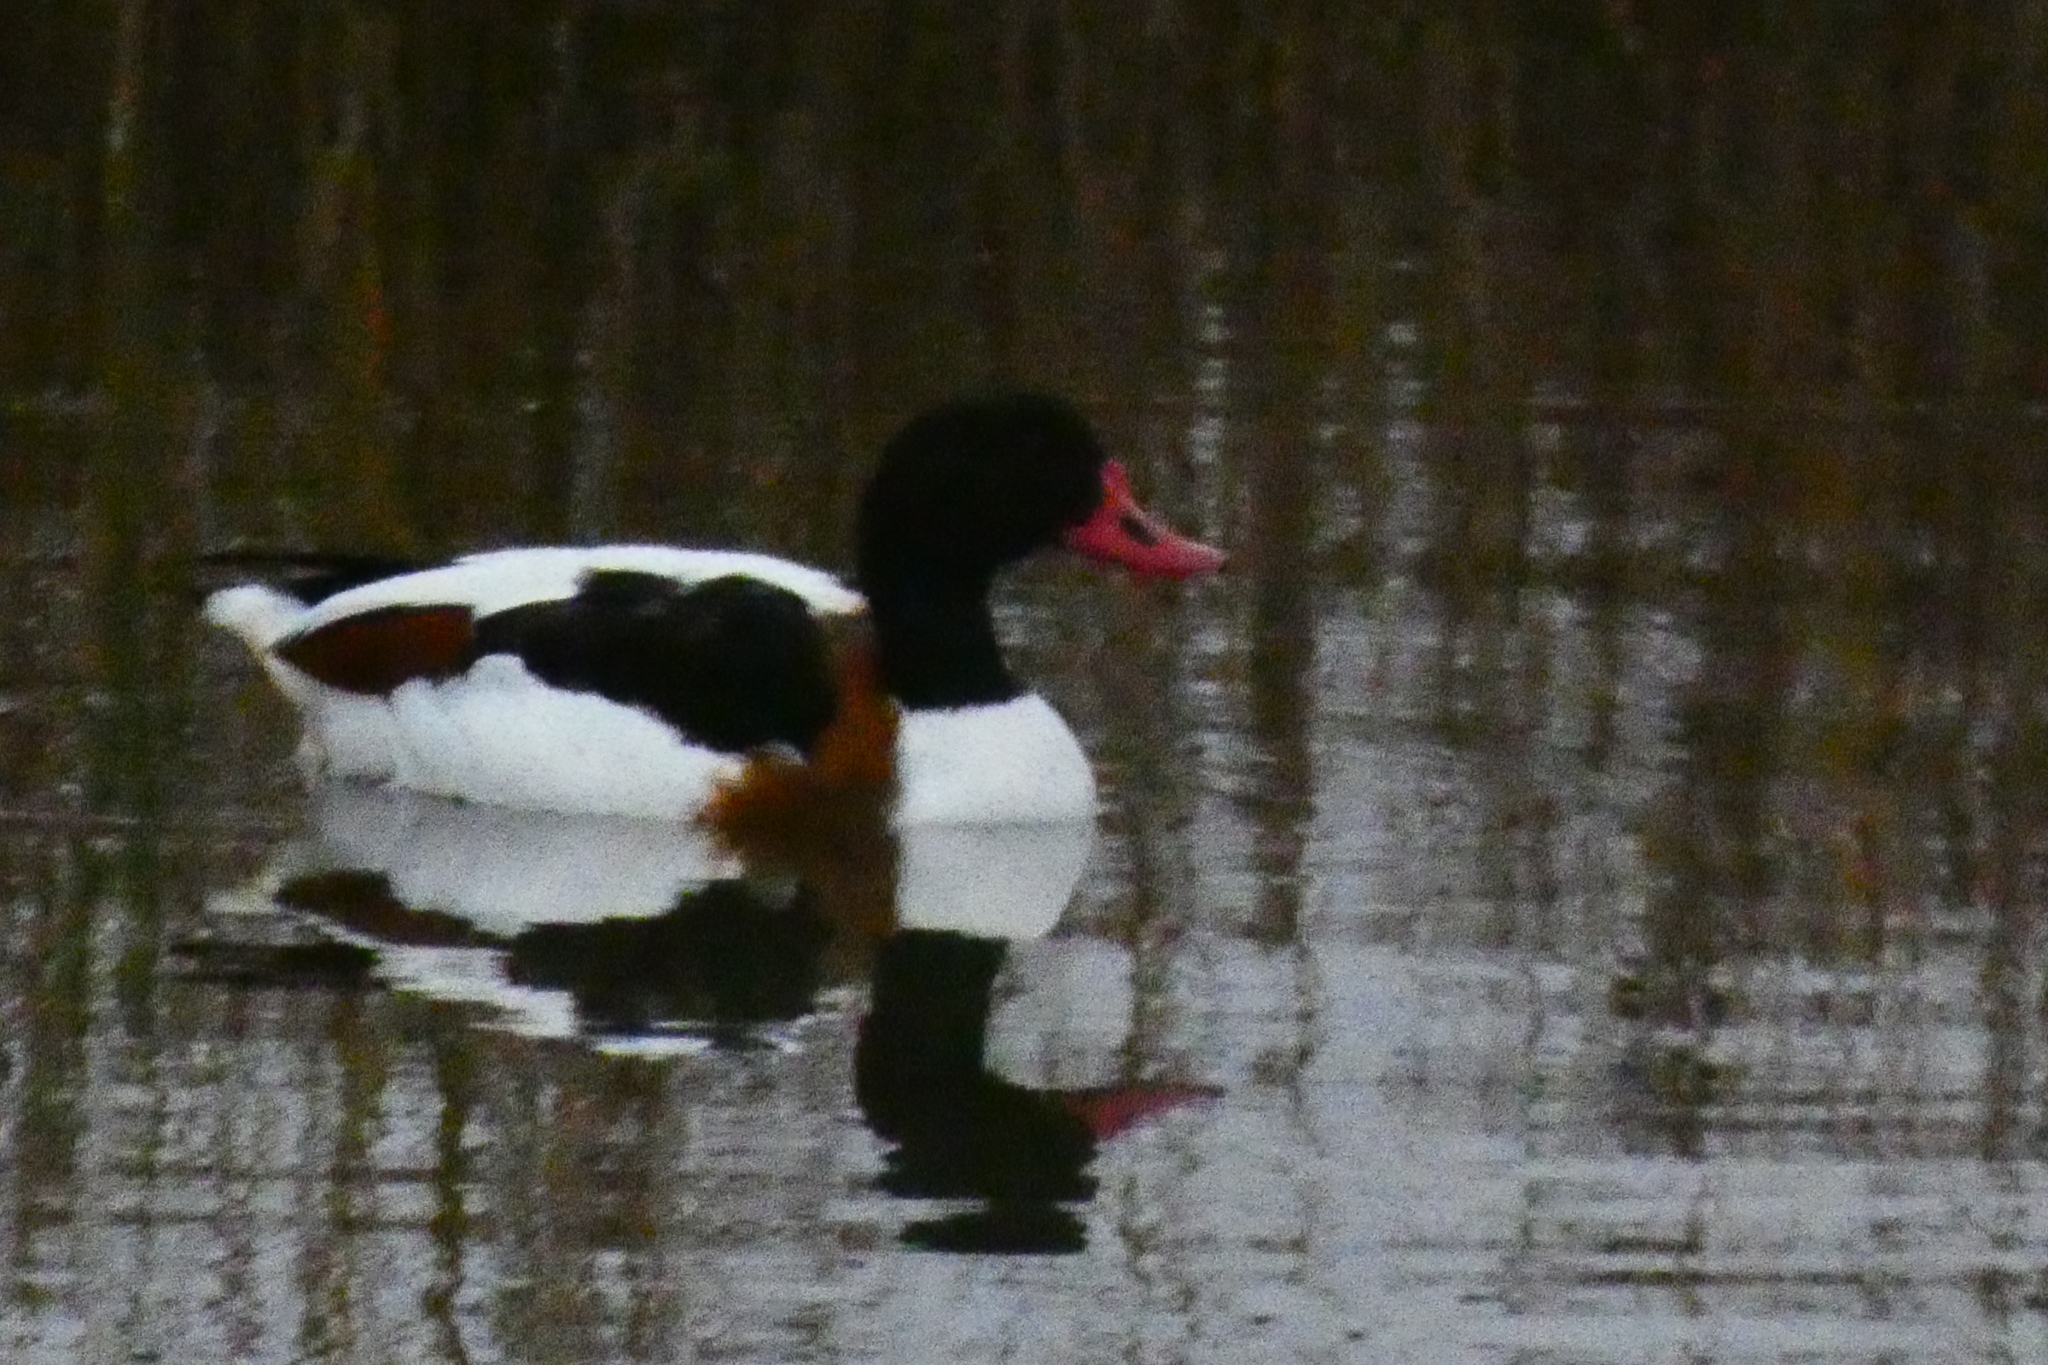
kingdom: Animalia
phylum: Chordata
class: Aves
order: Anseriformes
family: Anatidae
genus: Tadorna
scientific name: Tadorna tadorna
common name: Common shelduck
